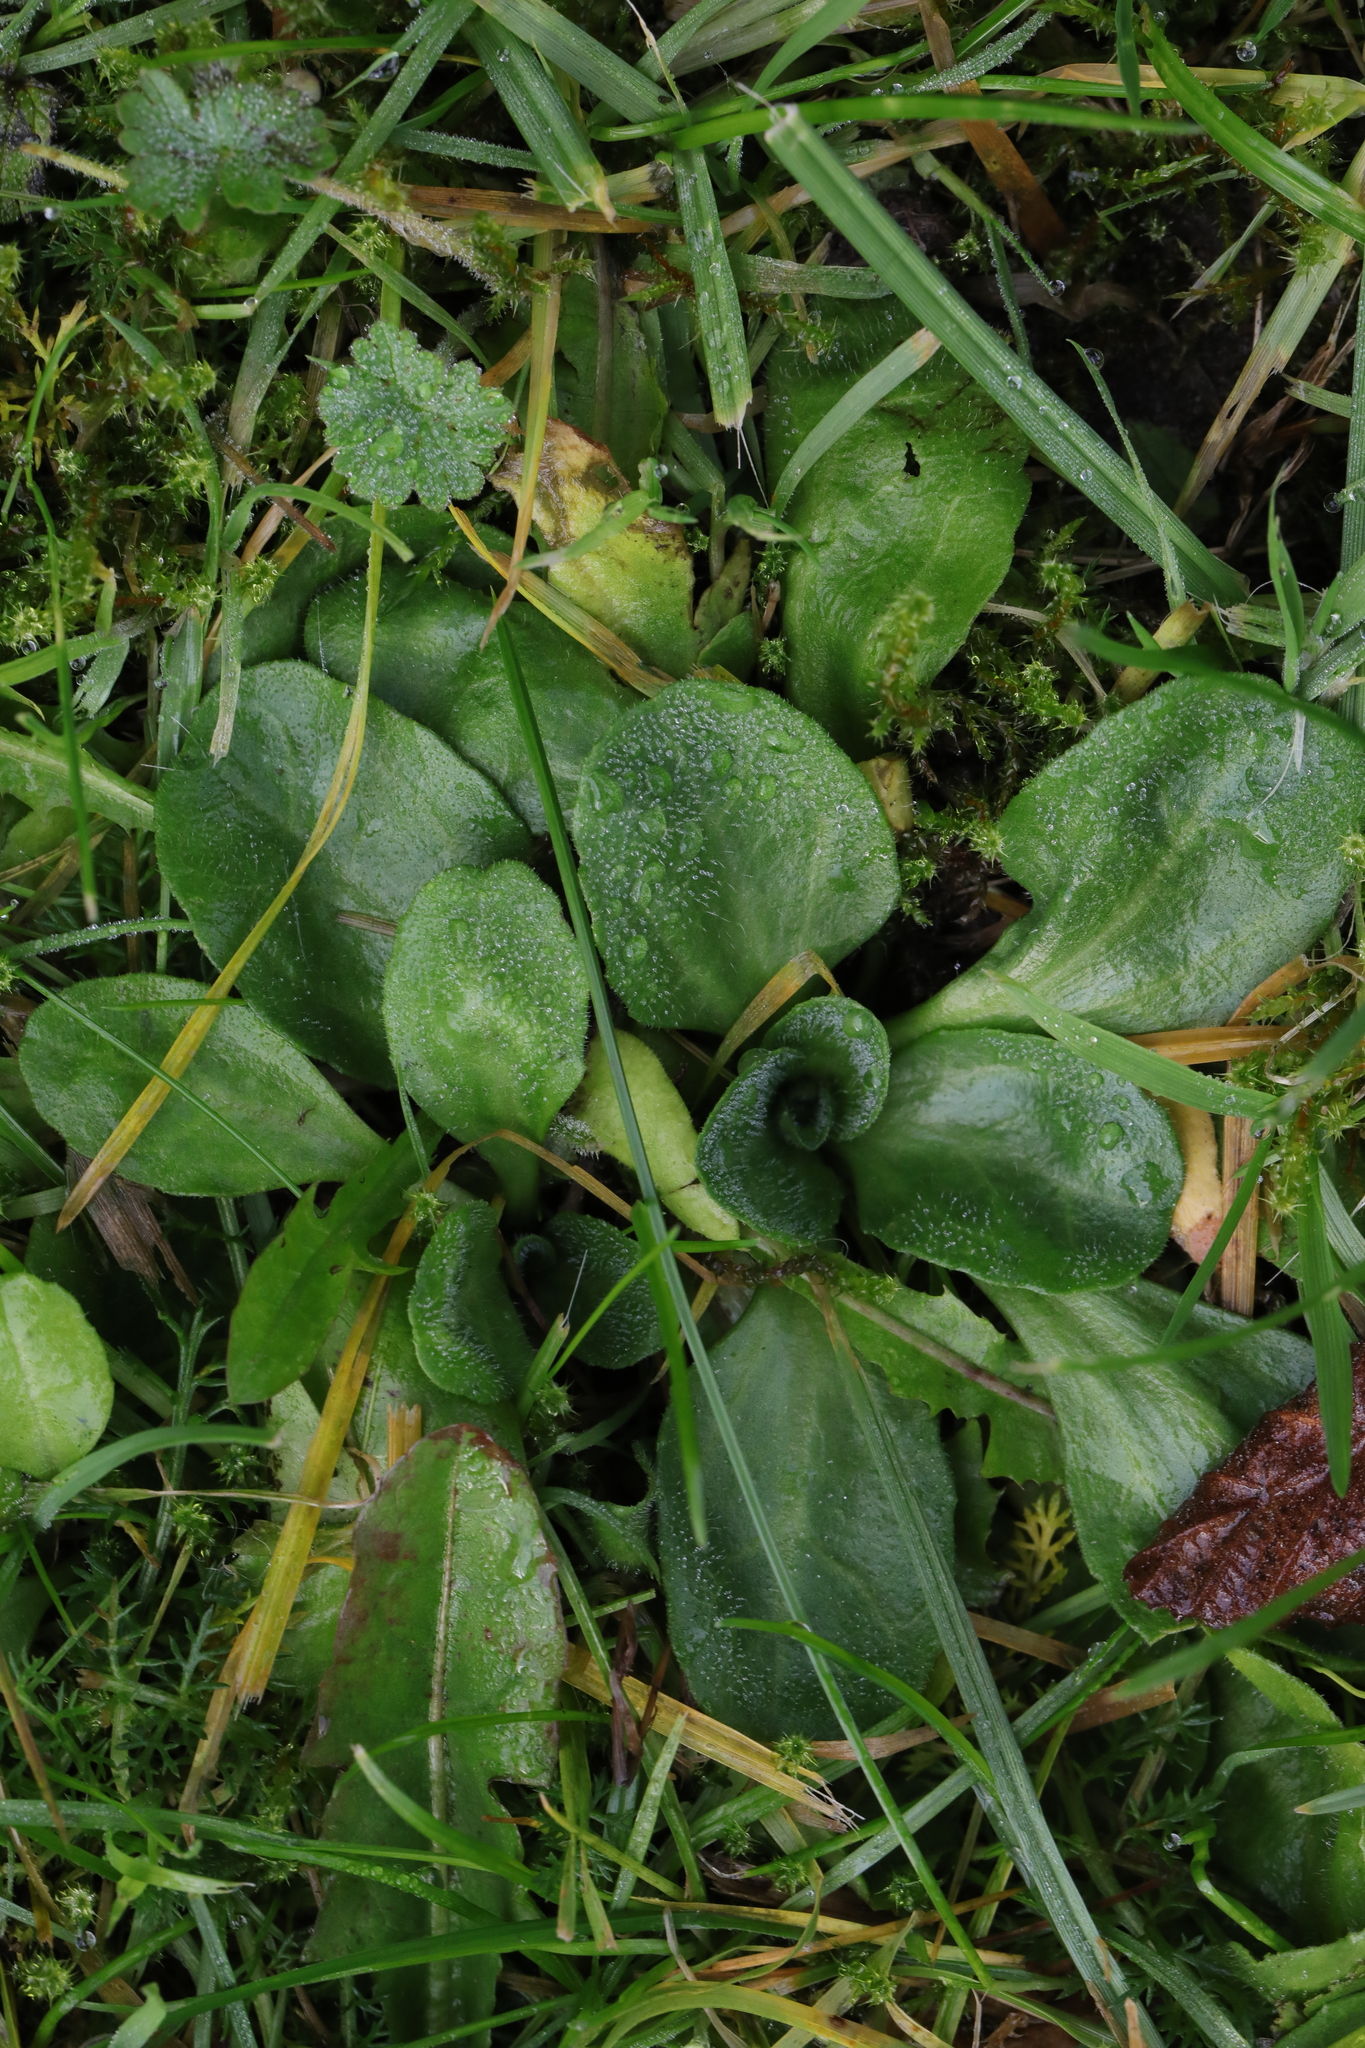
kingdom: Plantae
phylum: Tracheophyta
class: Magnoliopsida
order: Asterales
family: Asteraceae
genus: Bellis
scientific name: Bellis perennis
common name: Lawndaisy
